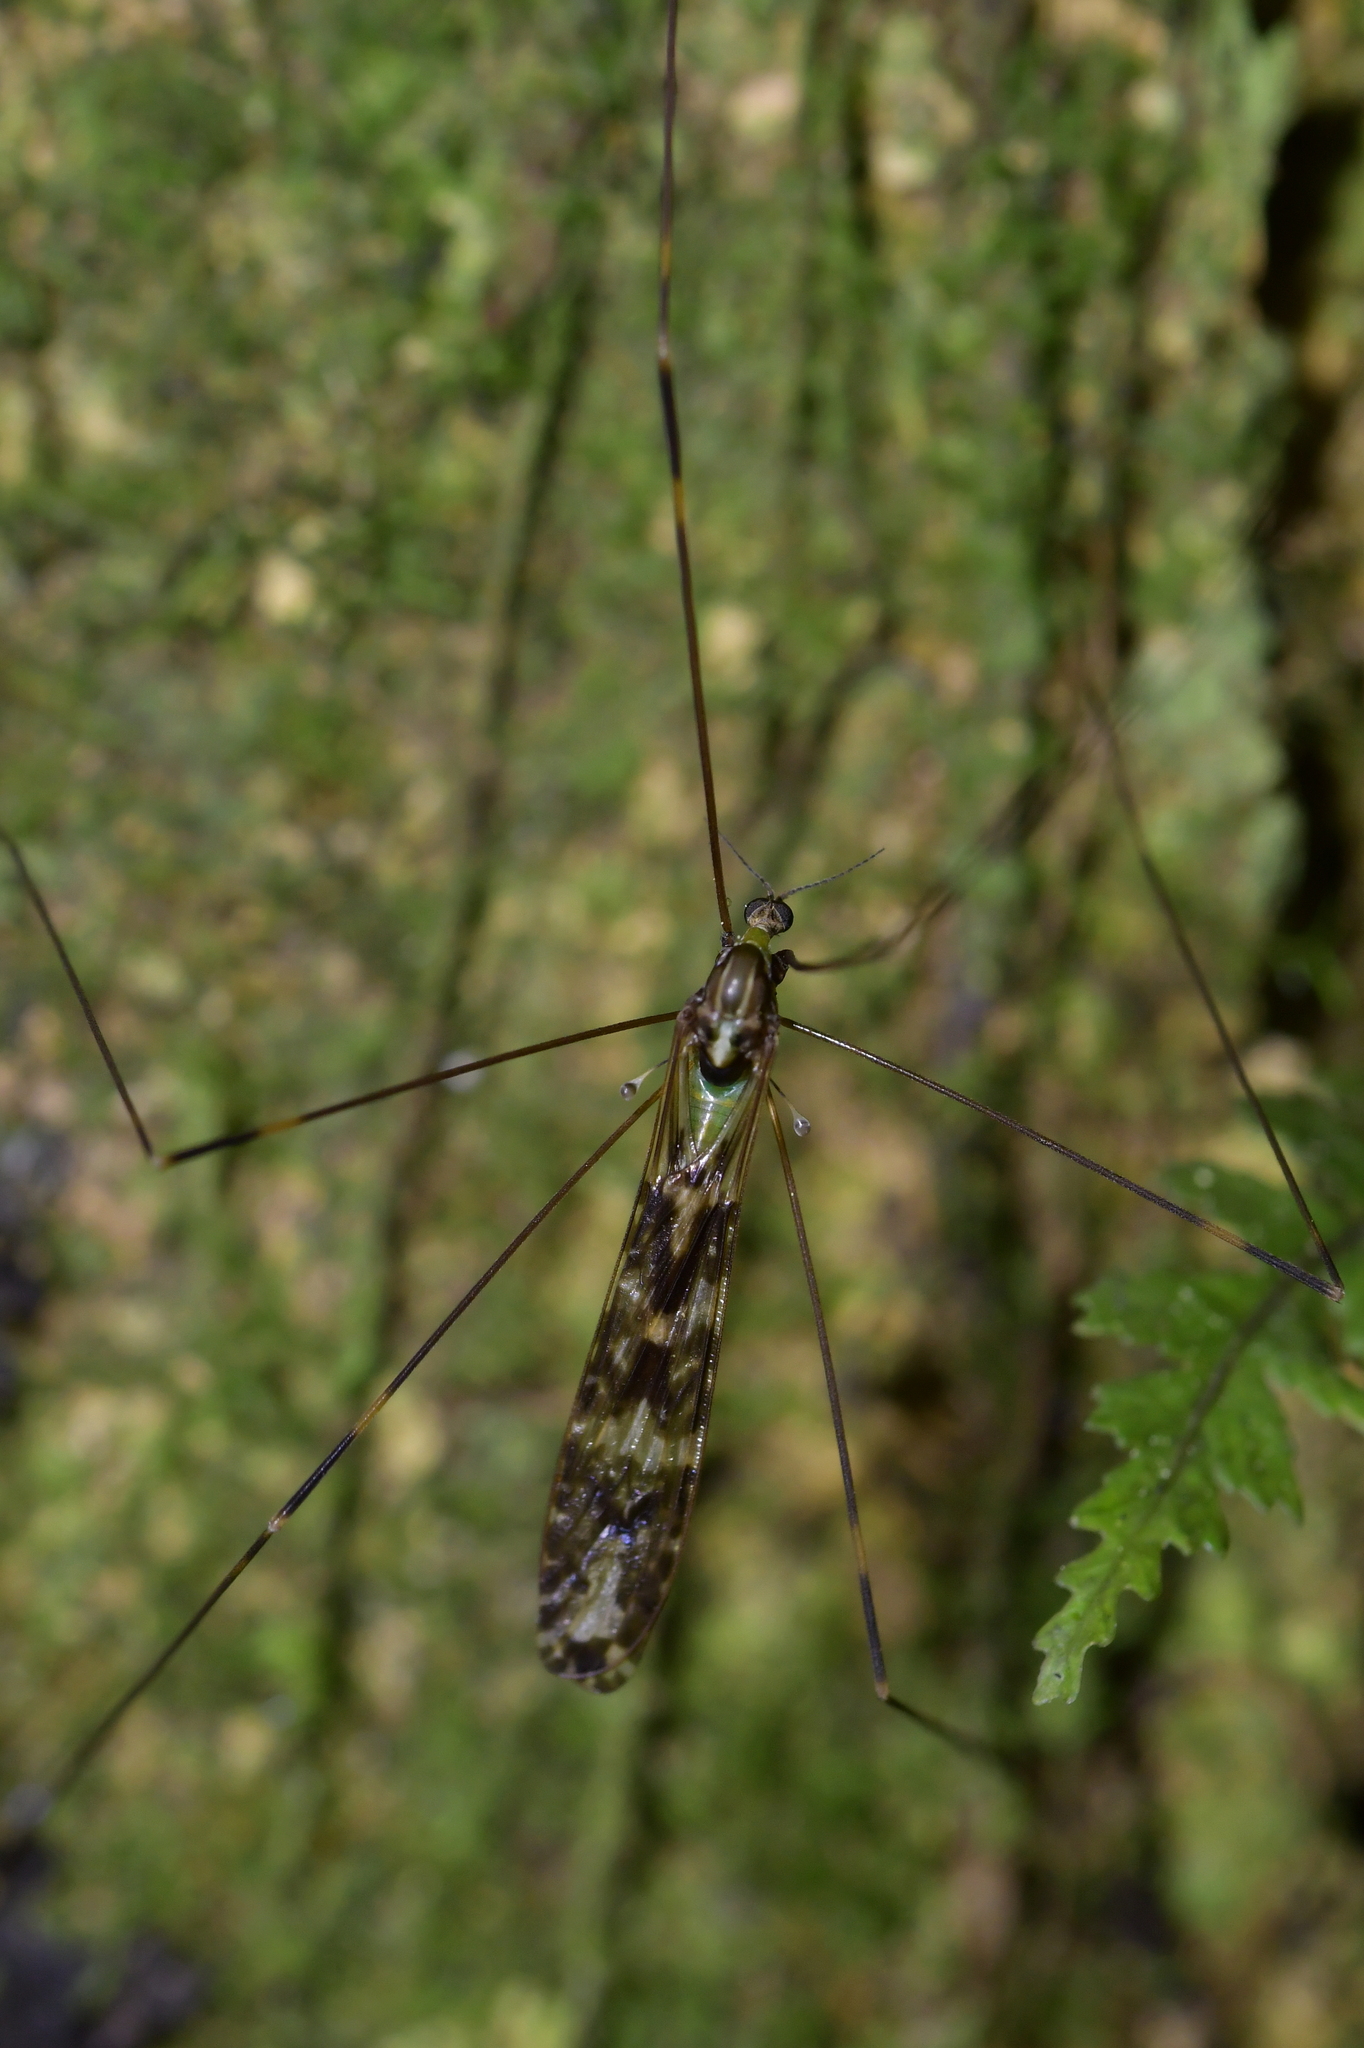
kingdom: Animalia
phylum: Arthropoda
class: Insecta
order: Diptera
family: Limoniidae
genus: Discobola
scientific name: Discobola dohrni
